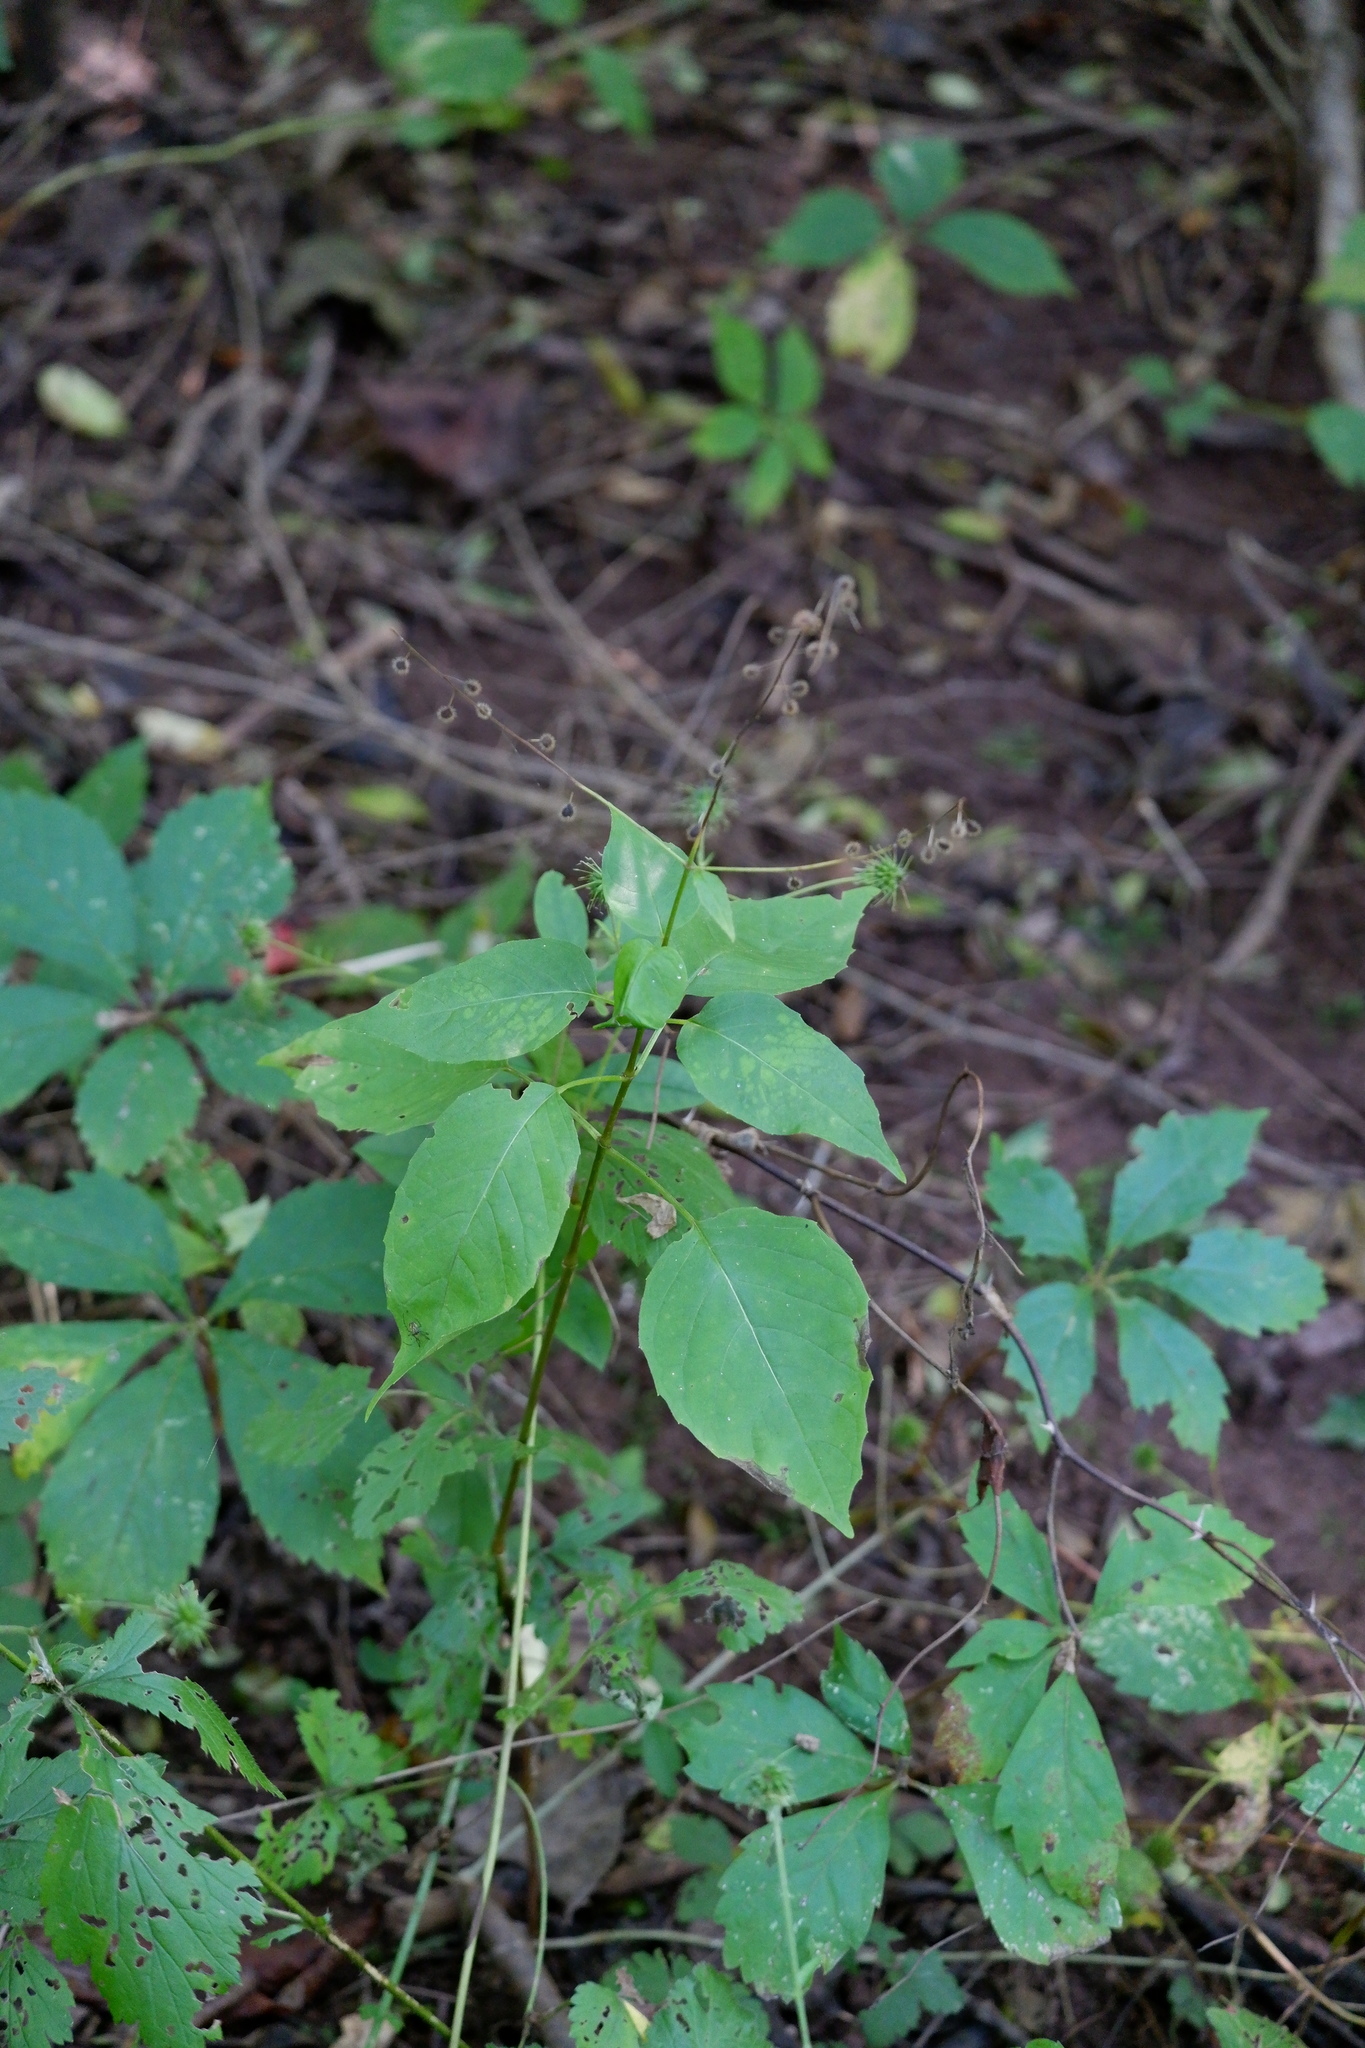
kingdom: Plantae
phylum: Tracheophyta
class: Magnoliopsida
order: Myrtales
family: Onagraceae
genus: Circaea
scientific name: Circaea canadensis
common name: Broad-leaved enchanter's nightshade
